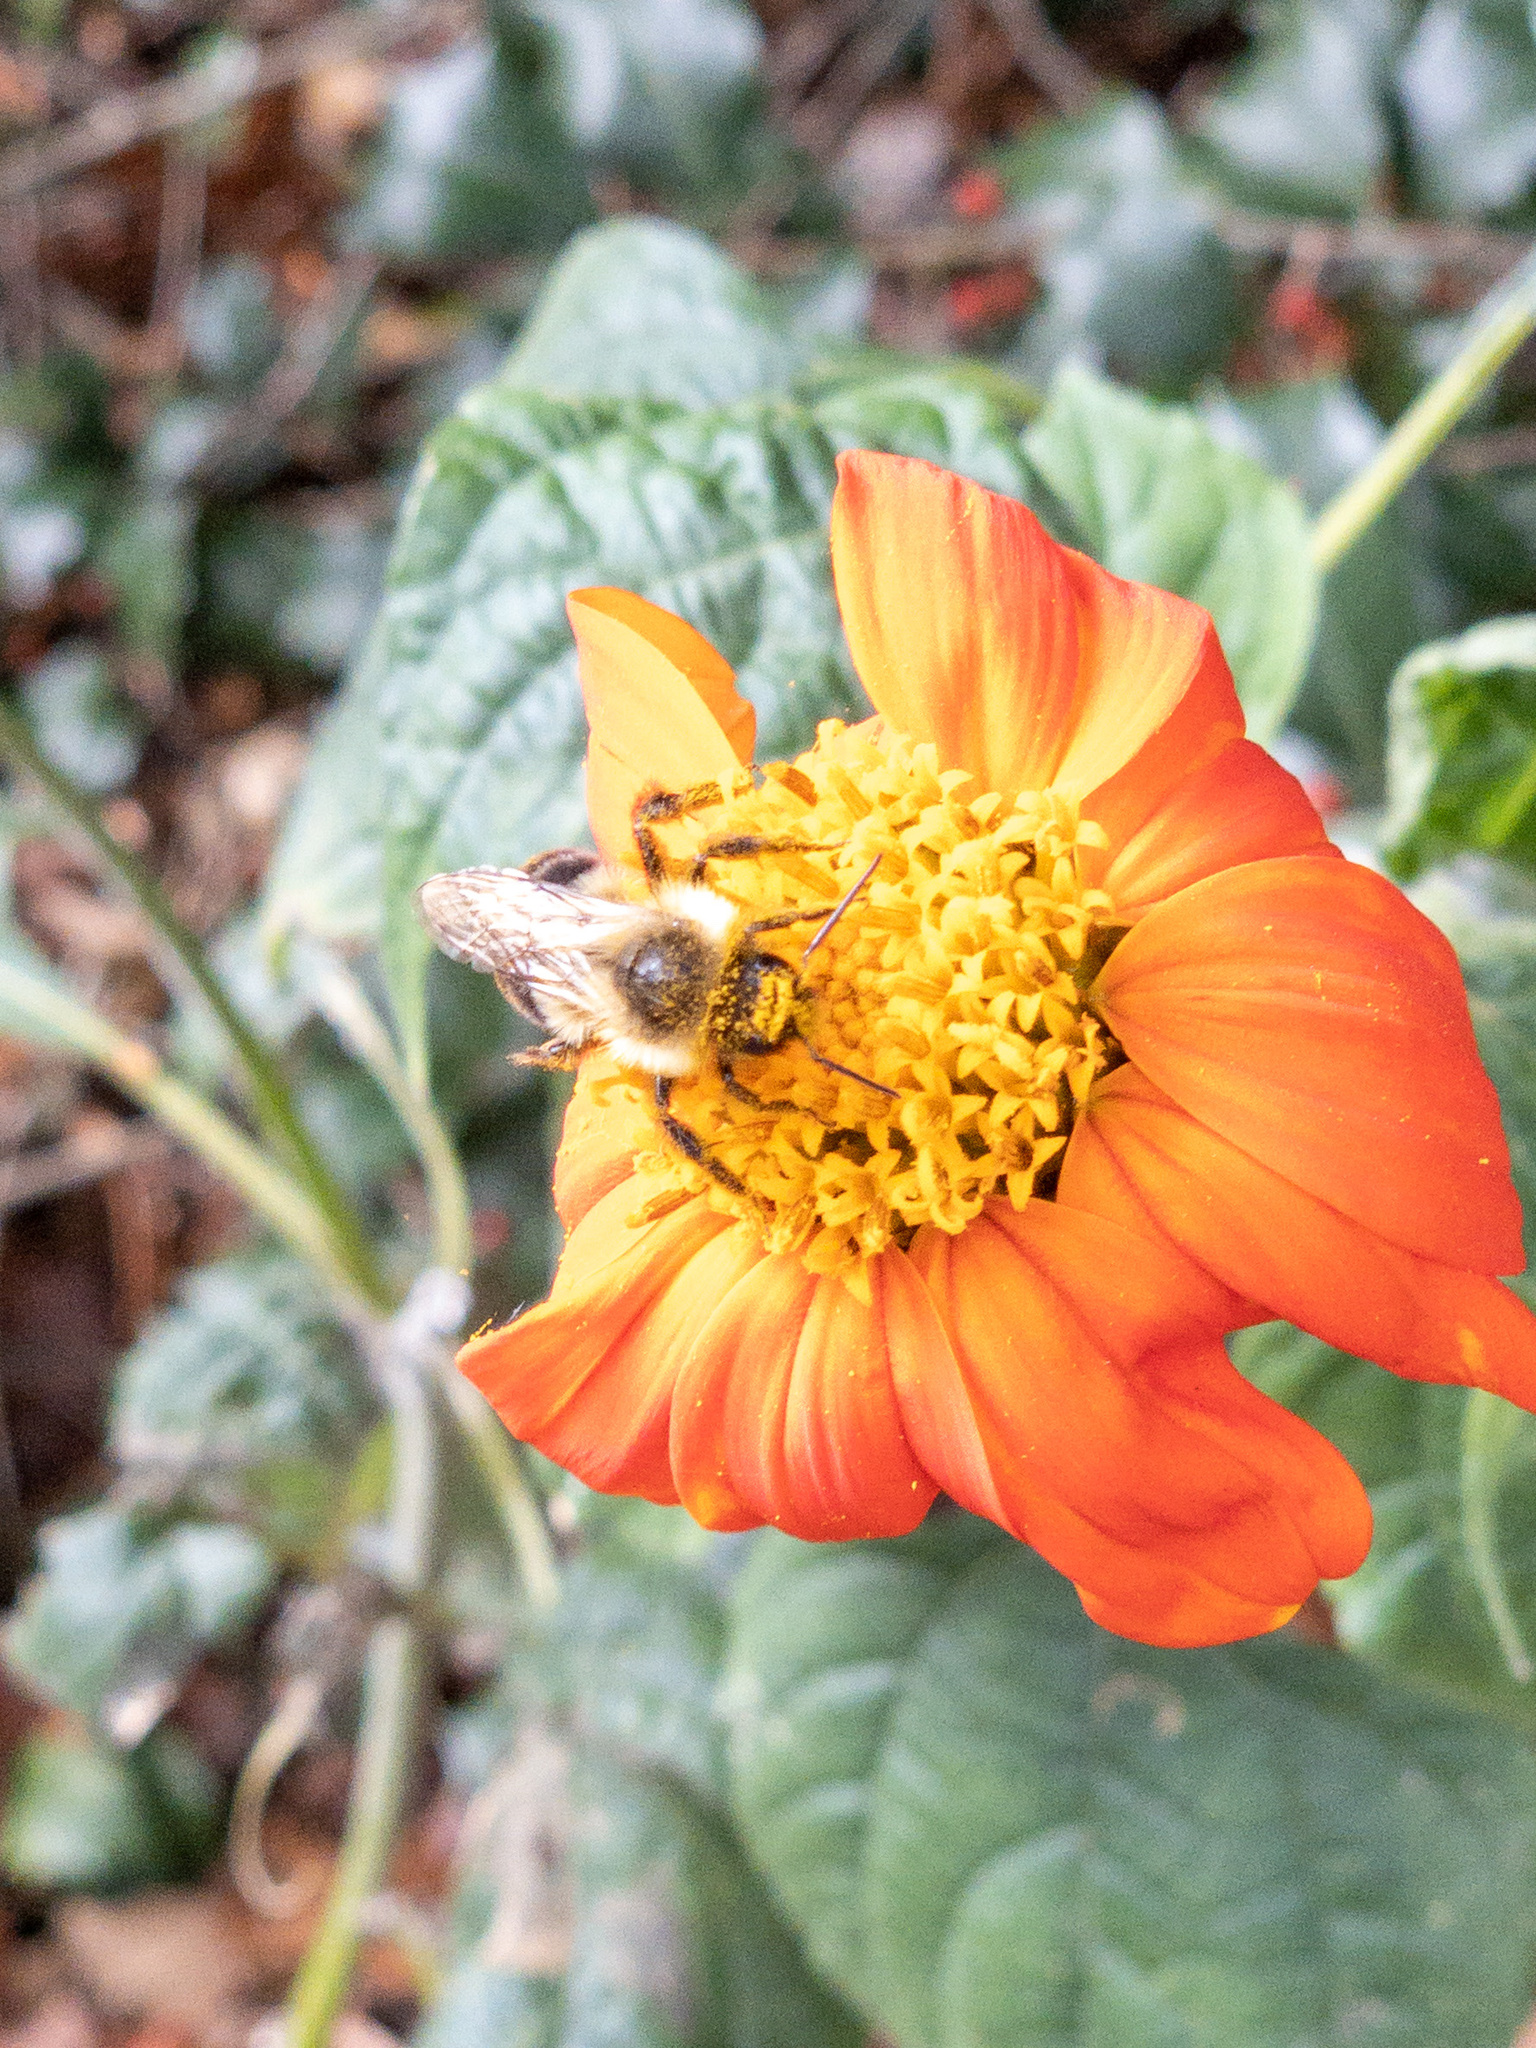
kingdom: Animalia
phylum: Arthropoda
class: Insecta
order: Hymenoptera
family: Apidae
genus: Bombus
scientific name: Bombus impatiens
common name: Common eastern bumble bee
